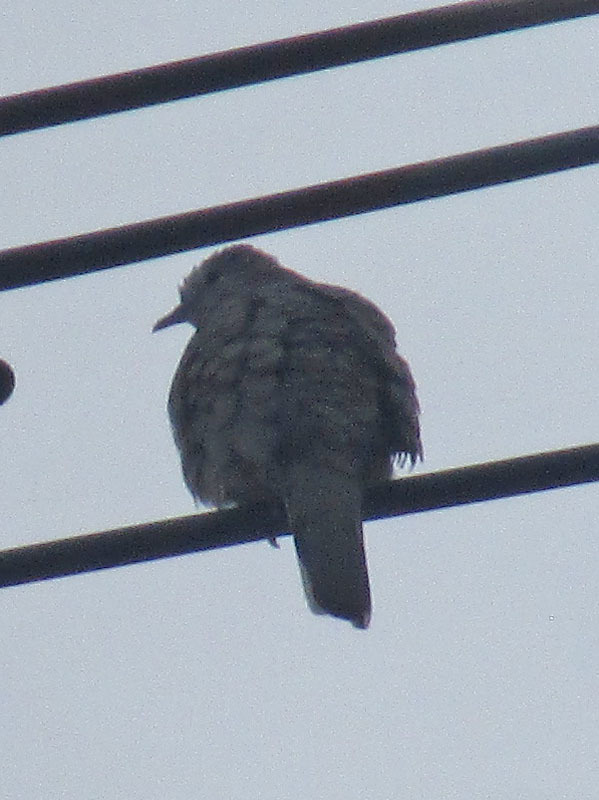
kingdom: Animalia
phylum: Chordata
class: Aves
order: Columbiformes
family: Columbidae
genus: Columbina
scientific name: Columbina inca
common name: Inca dove
